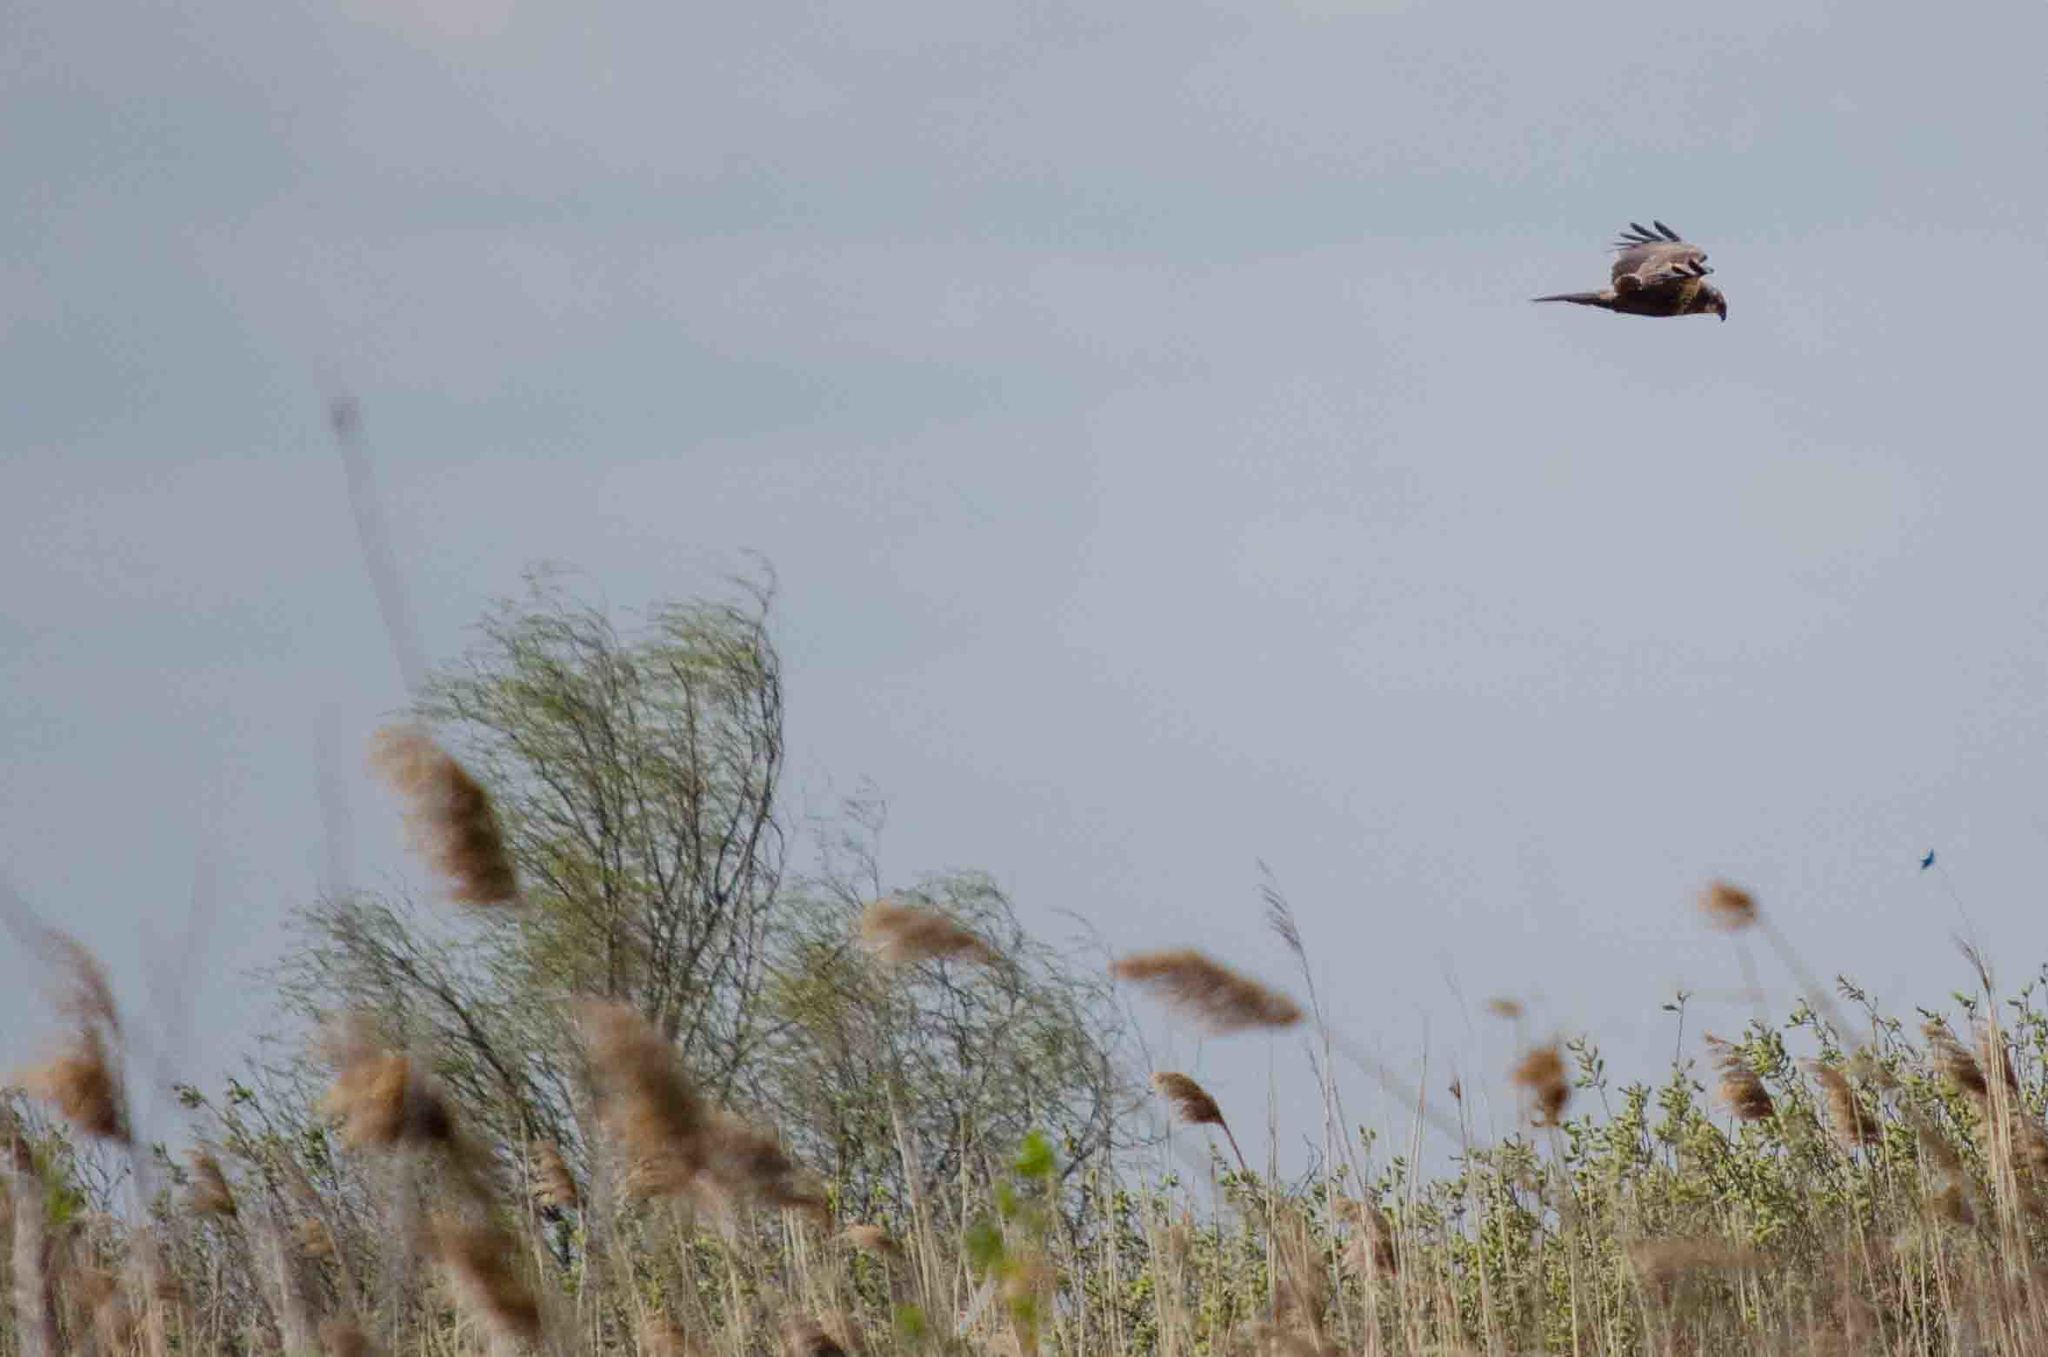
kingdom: Animalia
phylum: Chordata
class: Aves
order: Accipitriformes
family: Accipitridae
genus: Circus
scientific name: Circus aeruginosus
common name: Western marsh harrier
